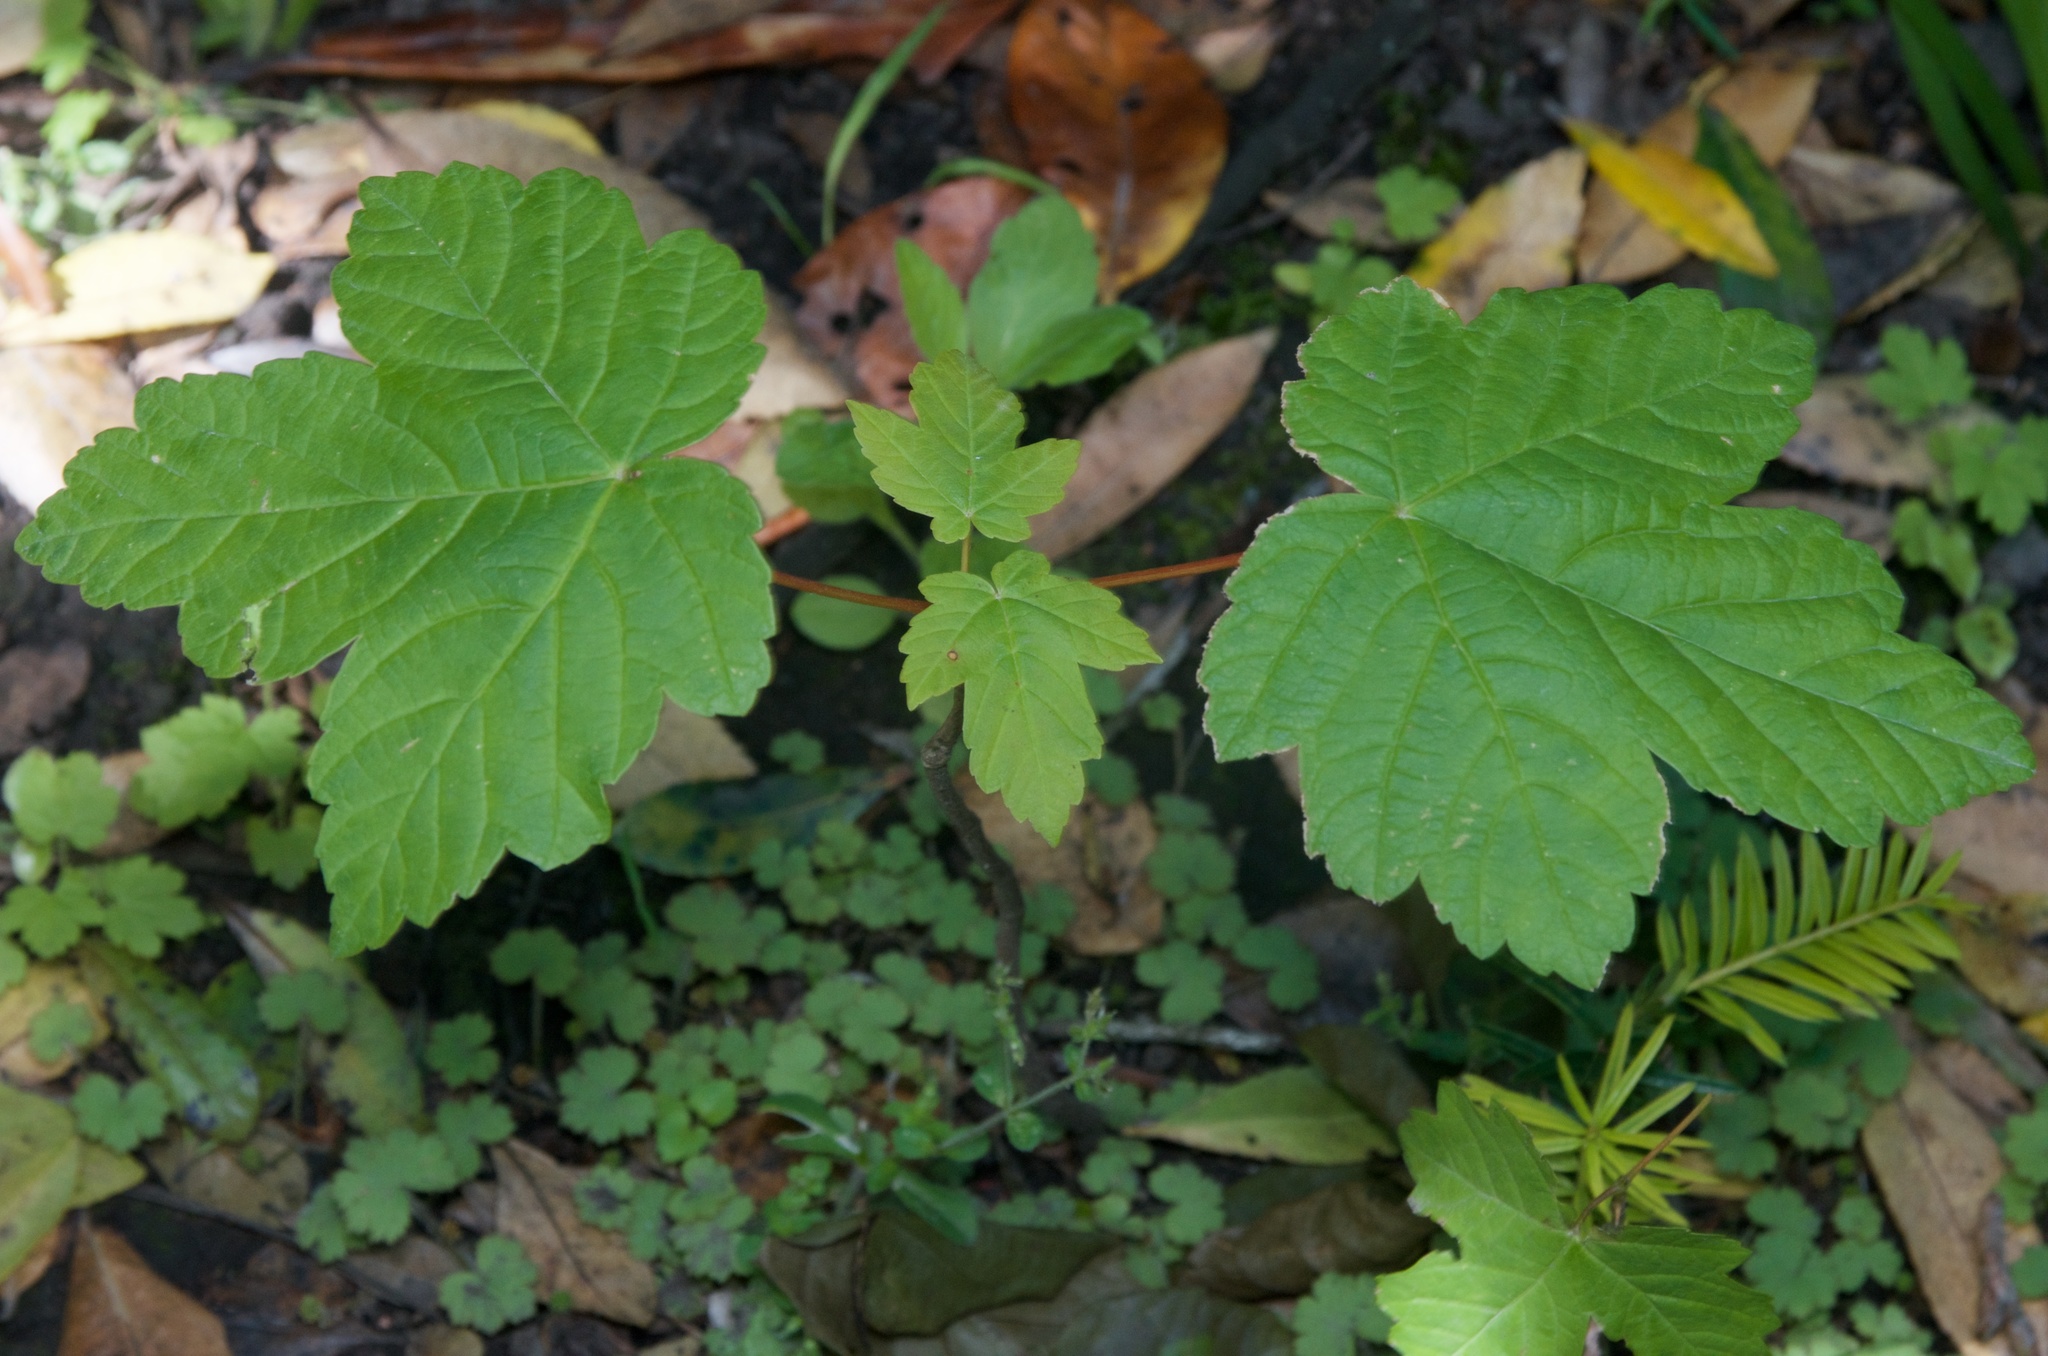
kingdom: Plantae
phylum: Tracheophyta
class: Magnoliopsida
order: Sapindales
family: Sapindaceae
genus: Acer
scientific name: Acer pseudoplatanus
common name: Sycamore
